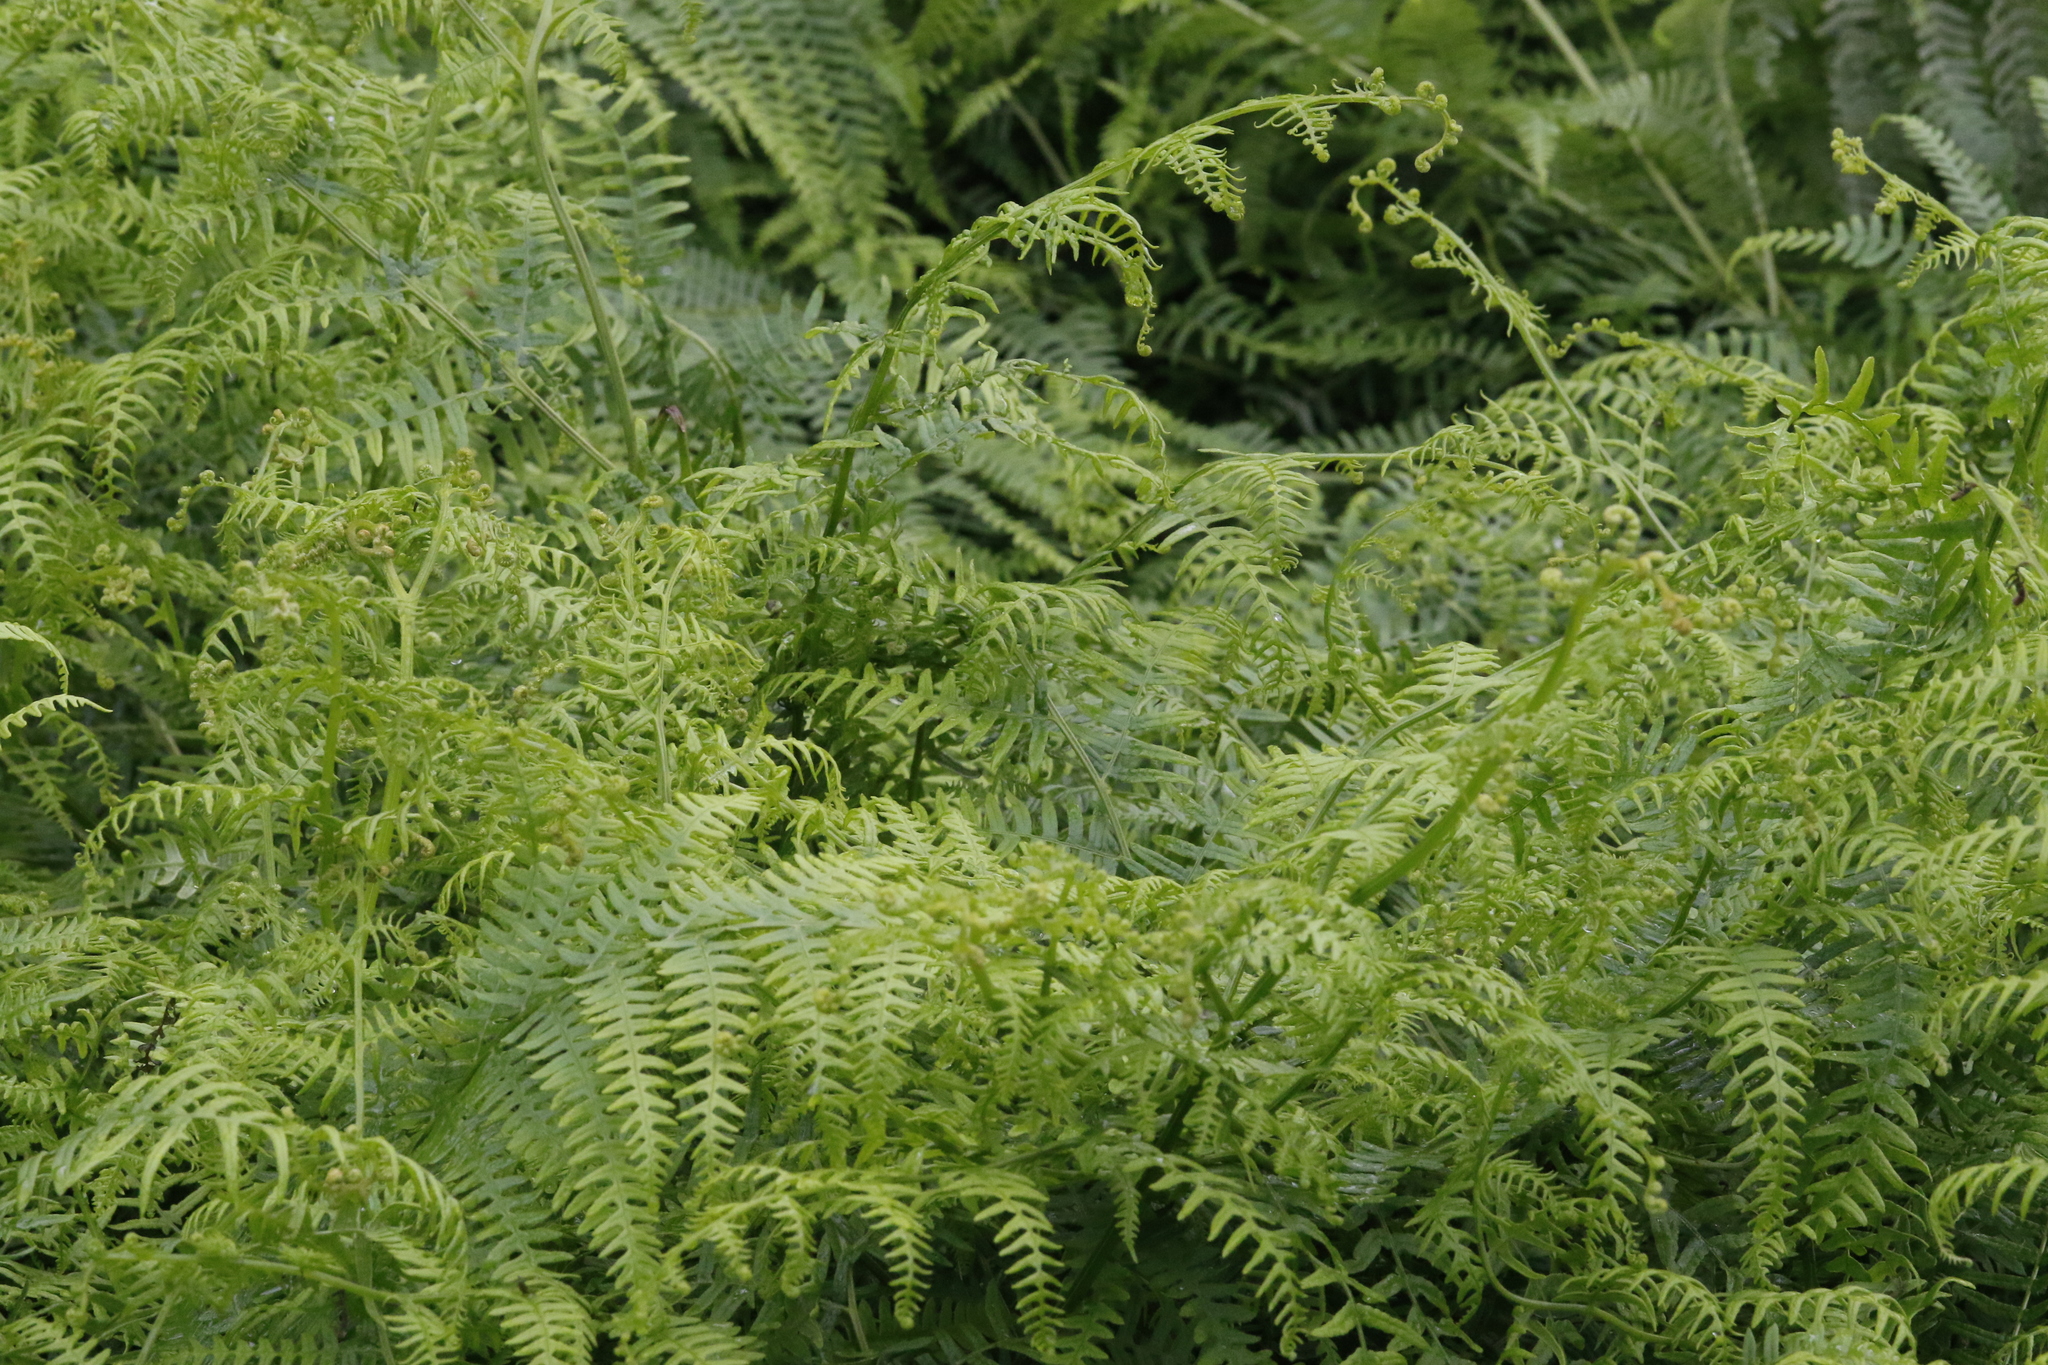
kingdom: Plantae
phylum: Tracheophyta
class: Polypodiopsida
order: Polypodiales
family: Dennstaedtiaceae
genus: Pteridium
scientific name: Pteridium aquilinum
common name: Bracken
